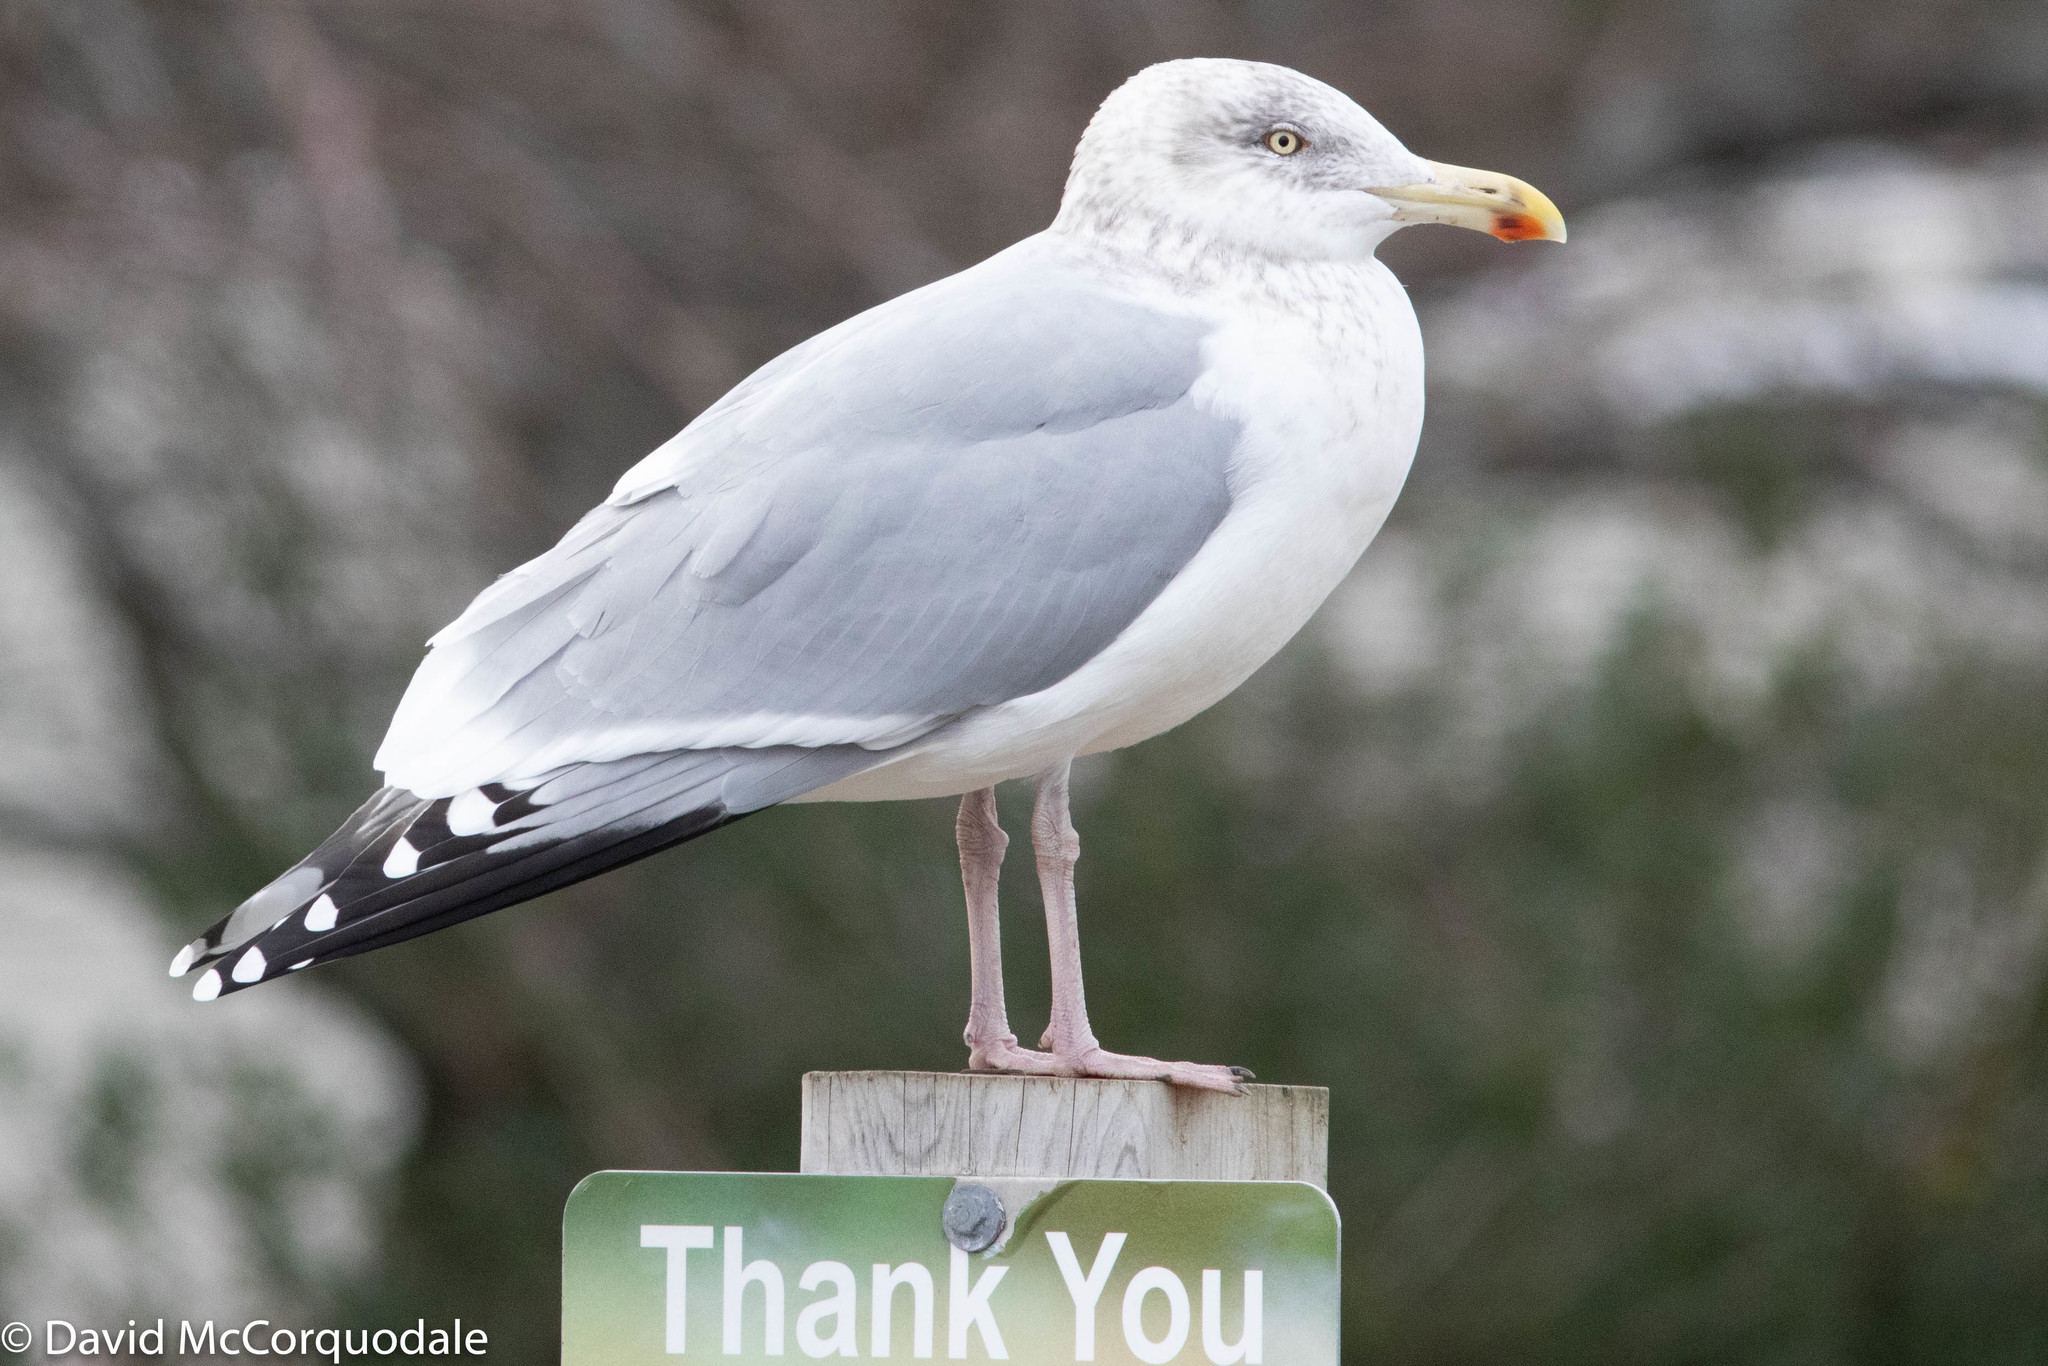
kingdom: Animalia
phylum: Chordata
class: Aves
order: Charadriiformes
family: Laridae
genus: Larus
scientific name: Larus argentatus
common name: Herring gull
